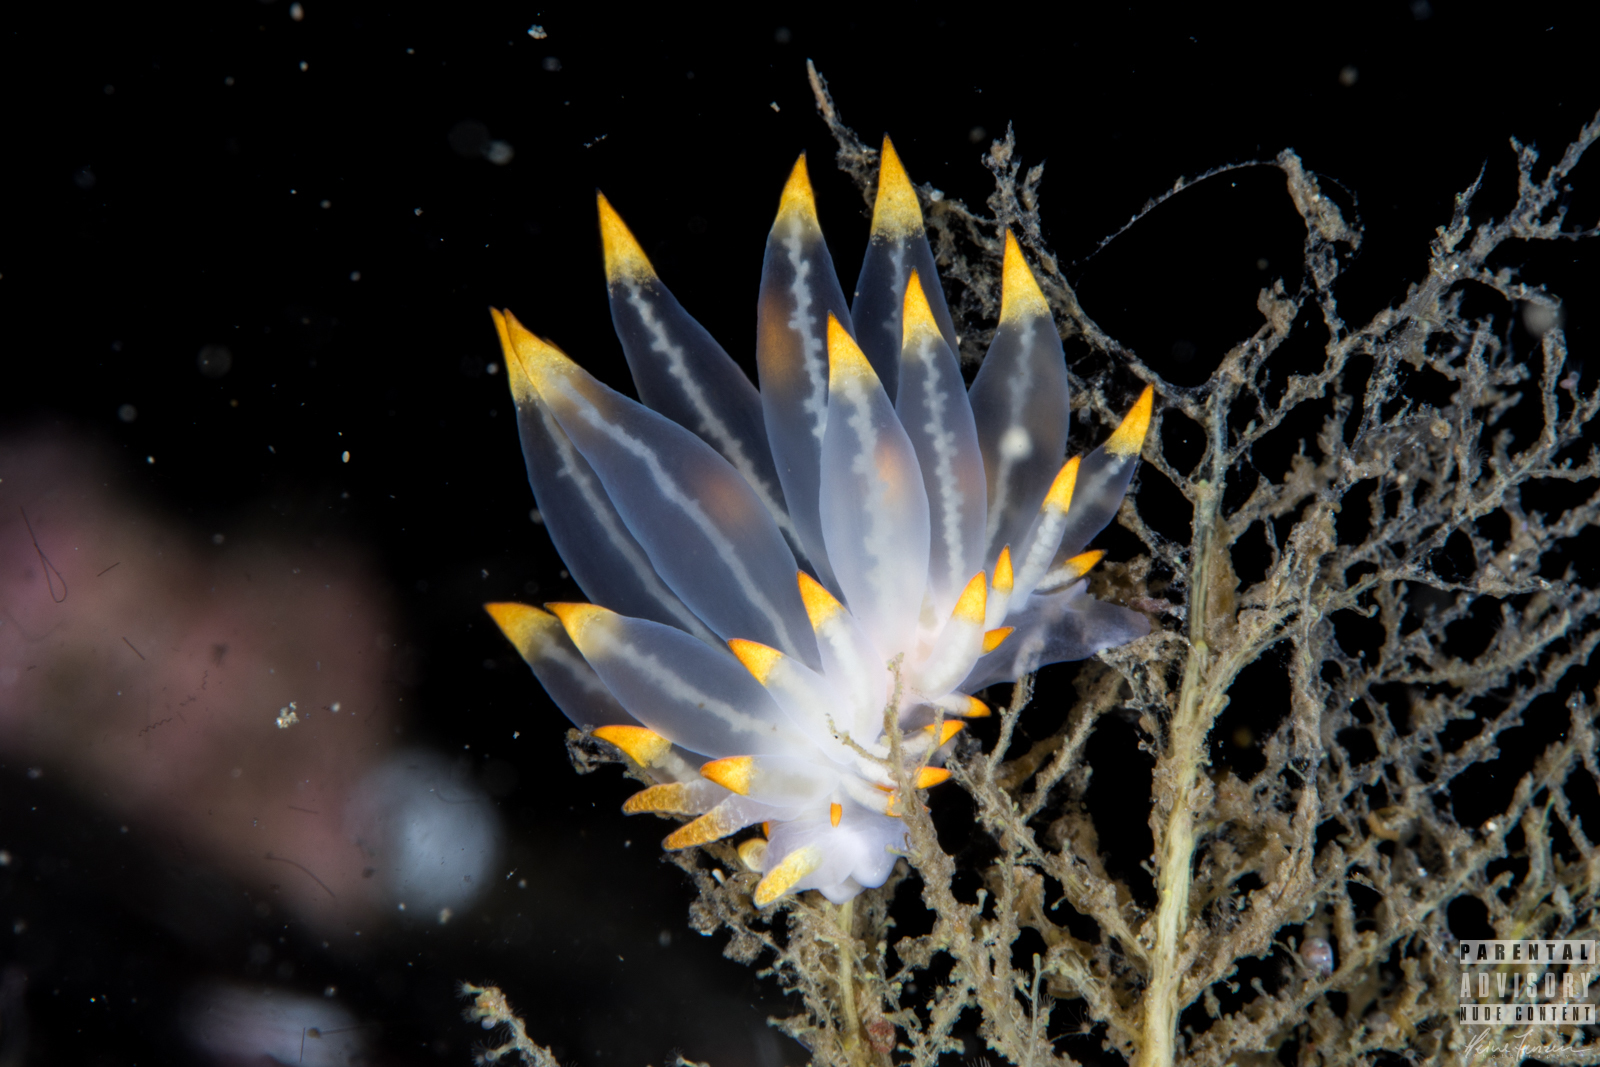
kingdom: Animalia
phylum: Mollusca
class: Gastropoda
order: Nudibranchia
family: Eubranchidae
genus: Amphorina
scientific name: Amphorina farrani
